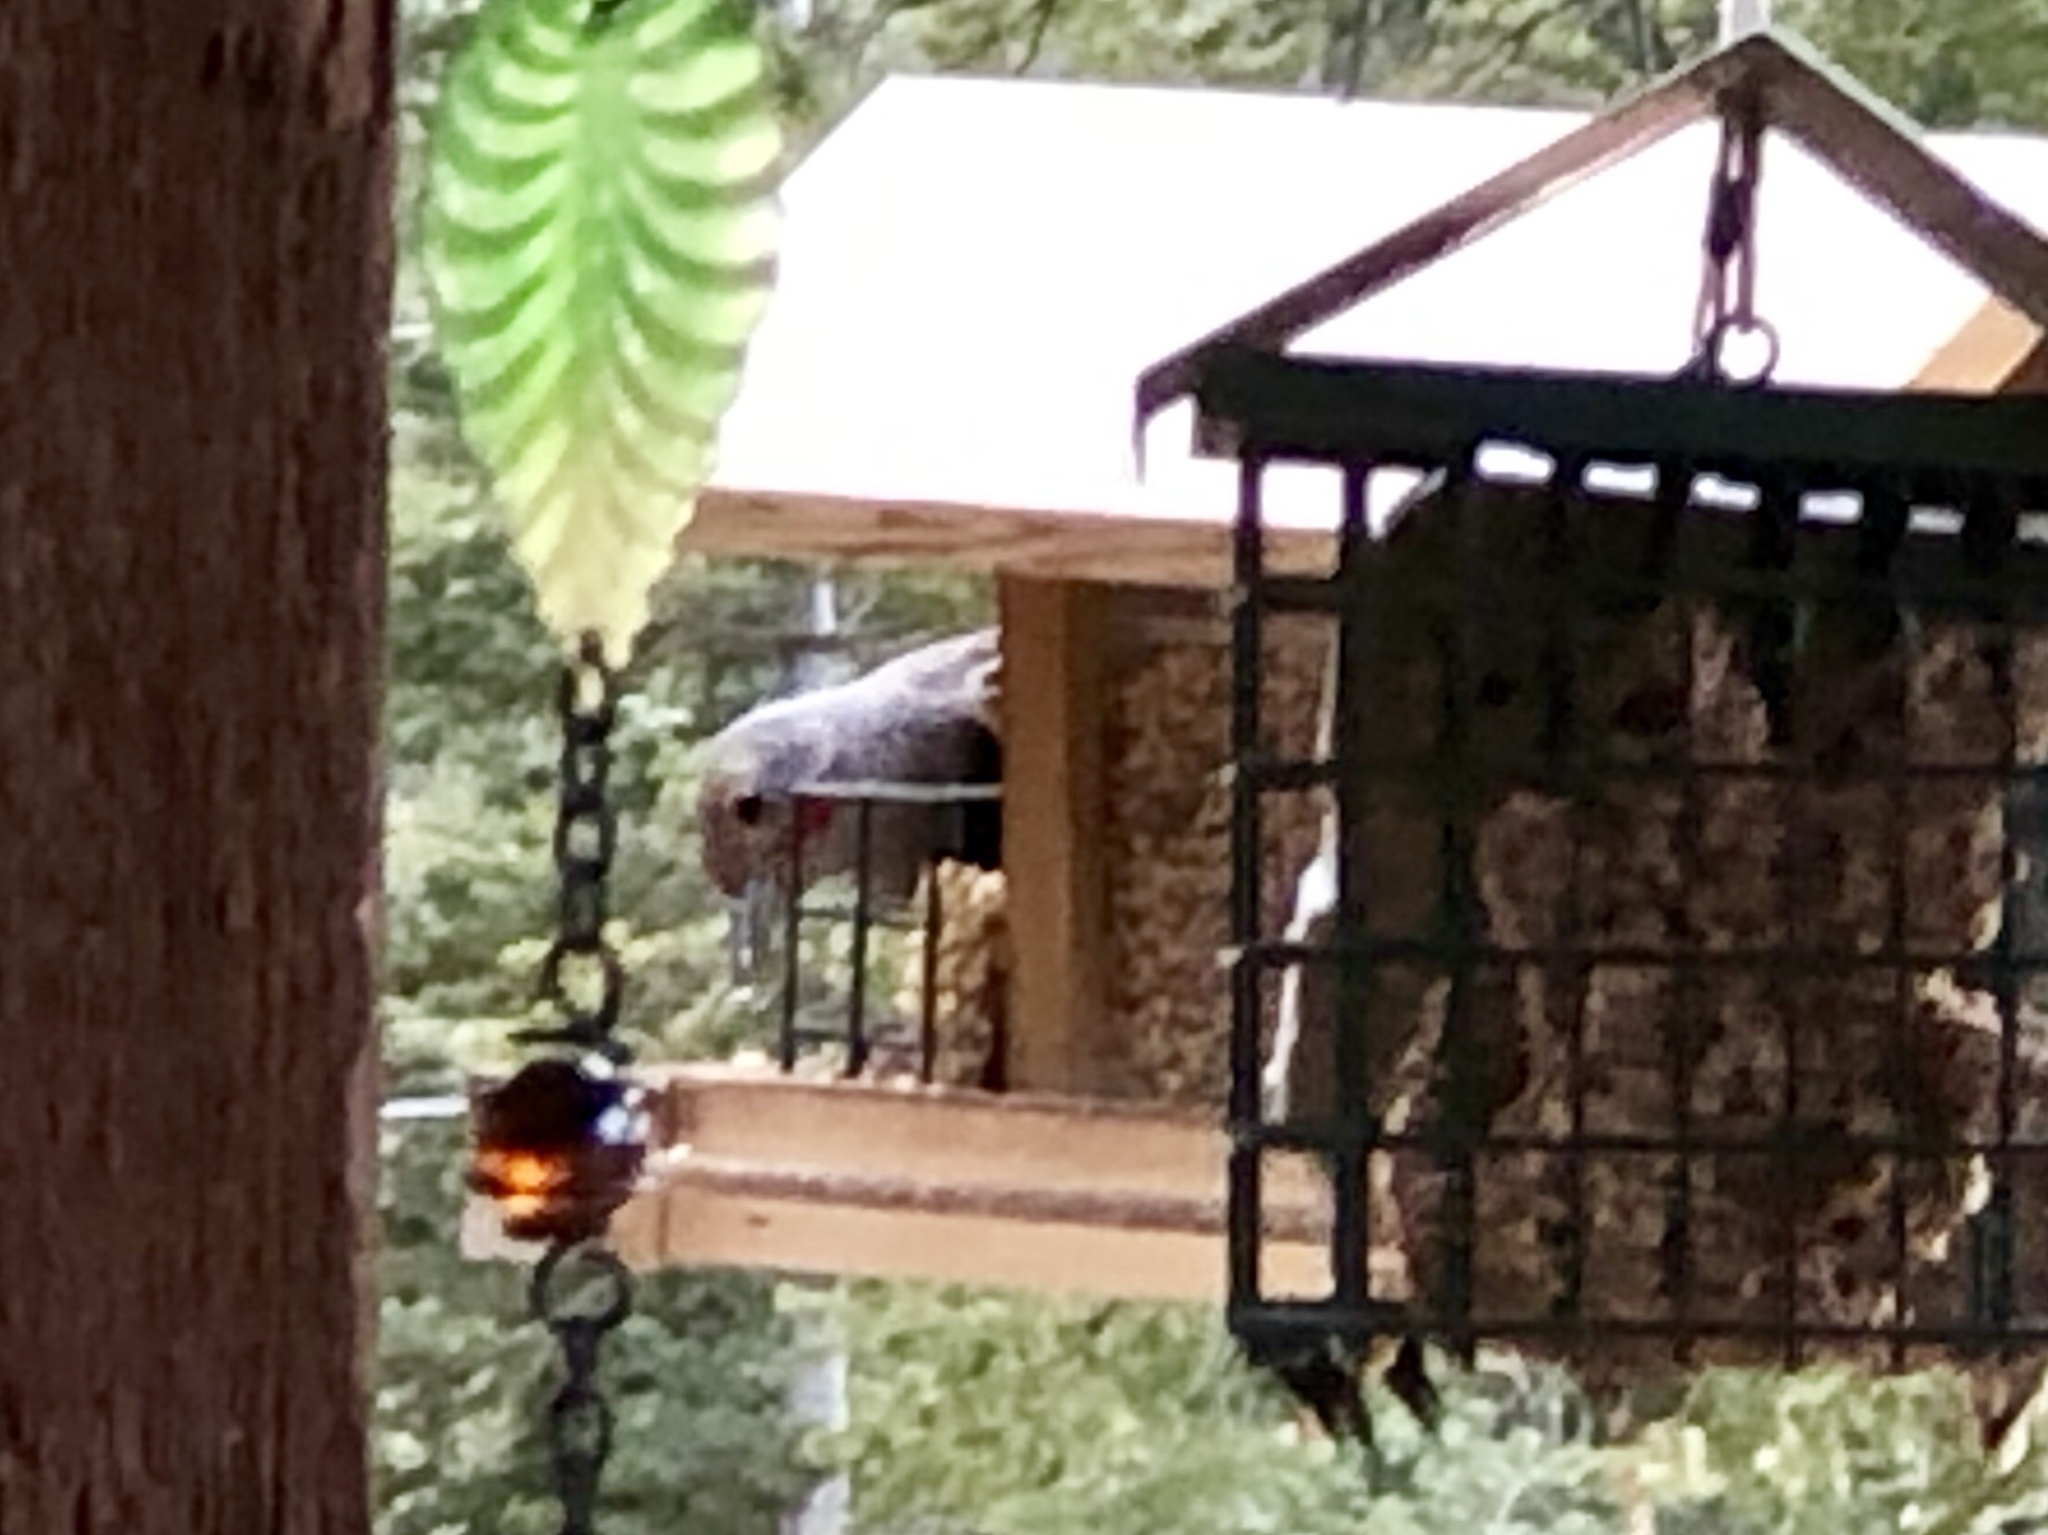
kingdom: Animalia
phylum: Chordata
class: Aves
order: Piciformes
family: Picidae
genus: Colaptes
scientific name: Colaptes auratus
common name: Northern flicker
